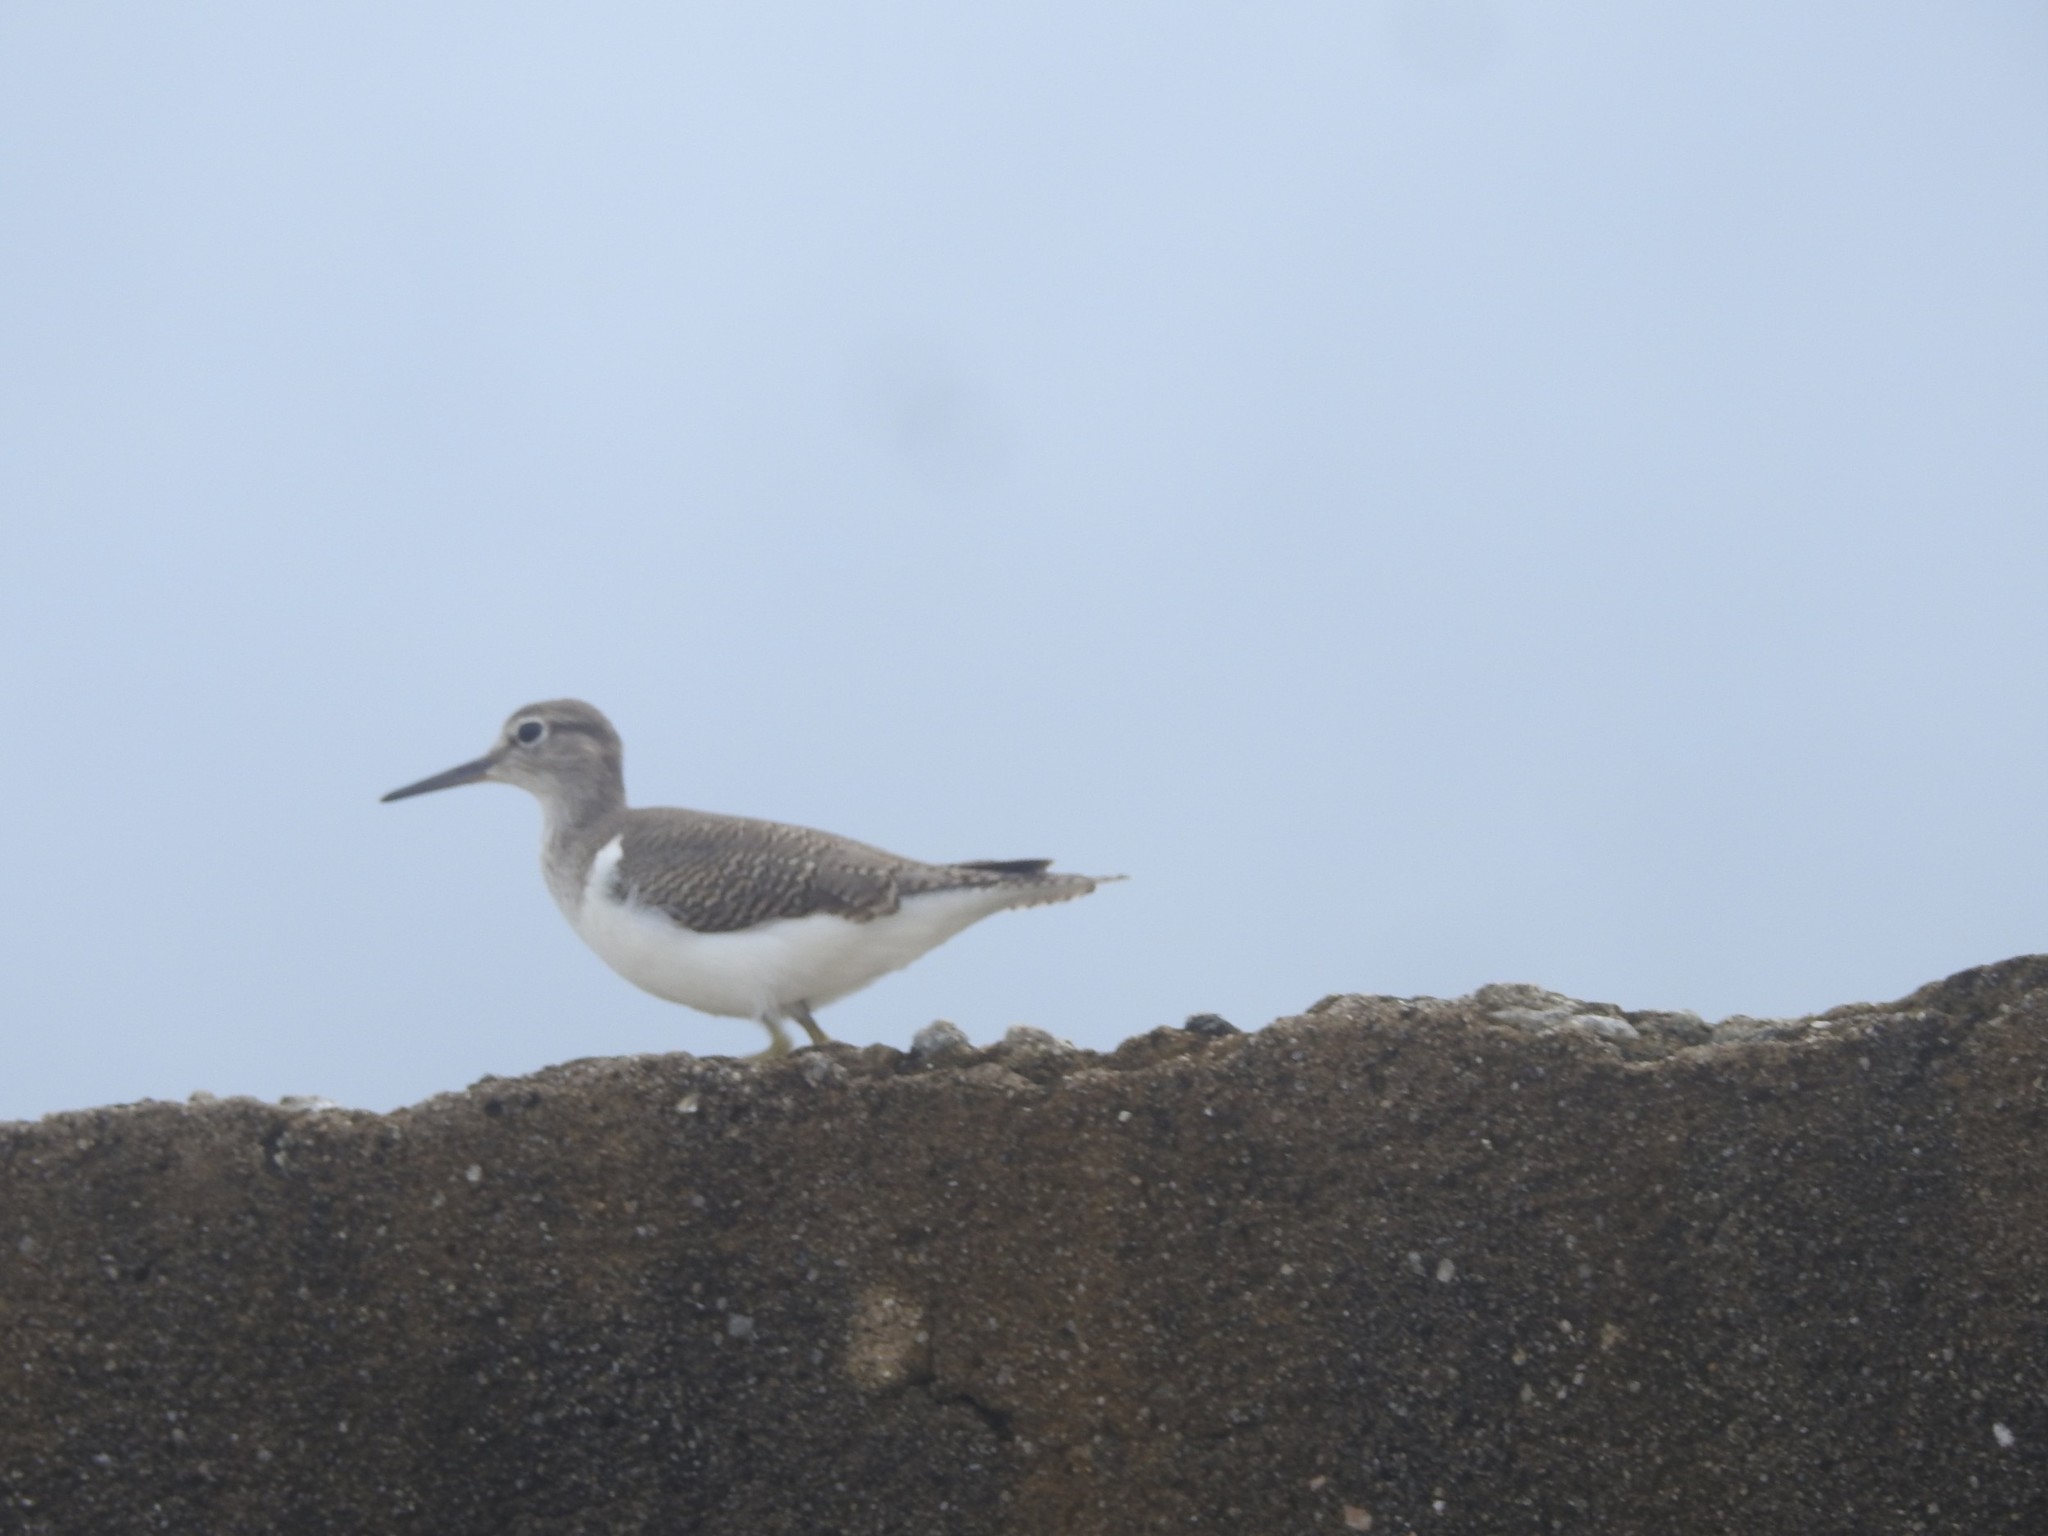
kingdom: Animalia
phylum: Chordata
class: Aves
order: Charadriiformes
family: Scolopacidae
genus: Actitis
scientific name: Actitis hypoleucos
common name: Common sandpiper
